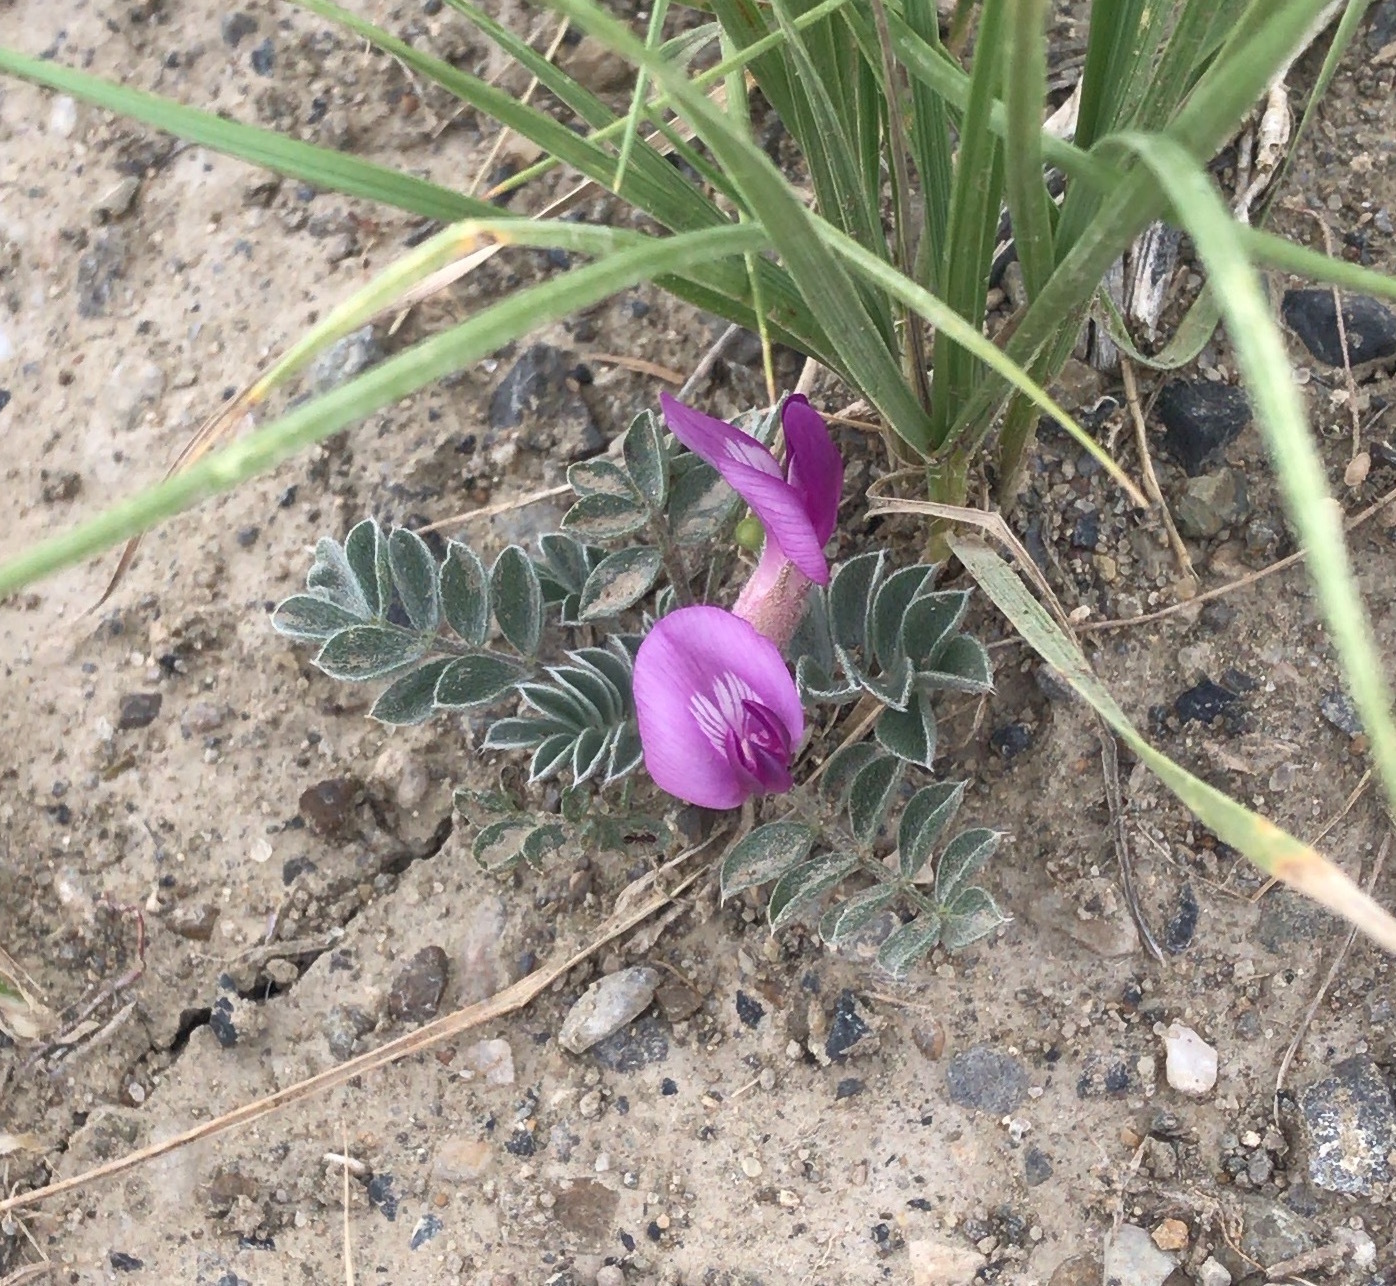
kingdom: Plantae
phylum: Tracheophyta
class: Magnoliopsida
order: Fabales
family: Fabaceae
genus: Astragalus
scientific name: Astragalus newberryi
